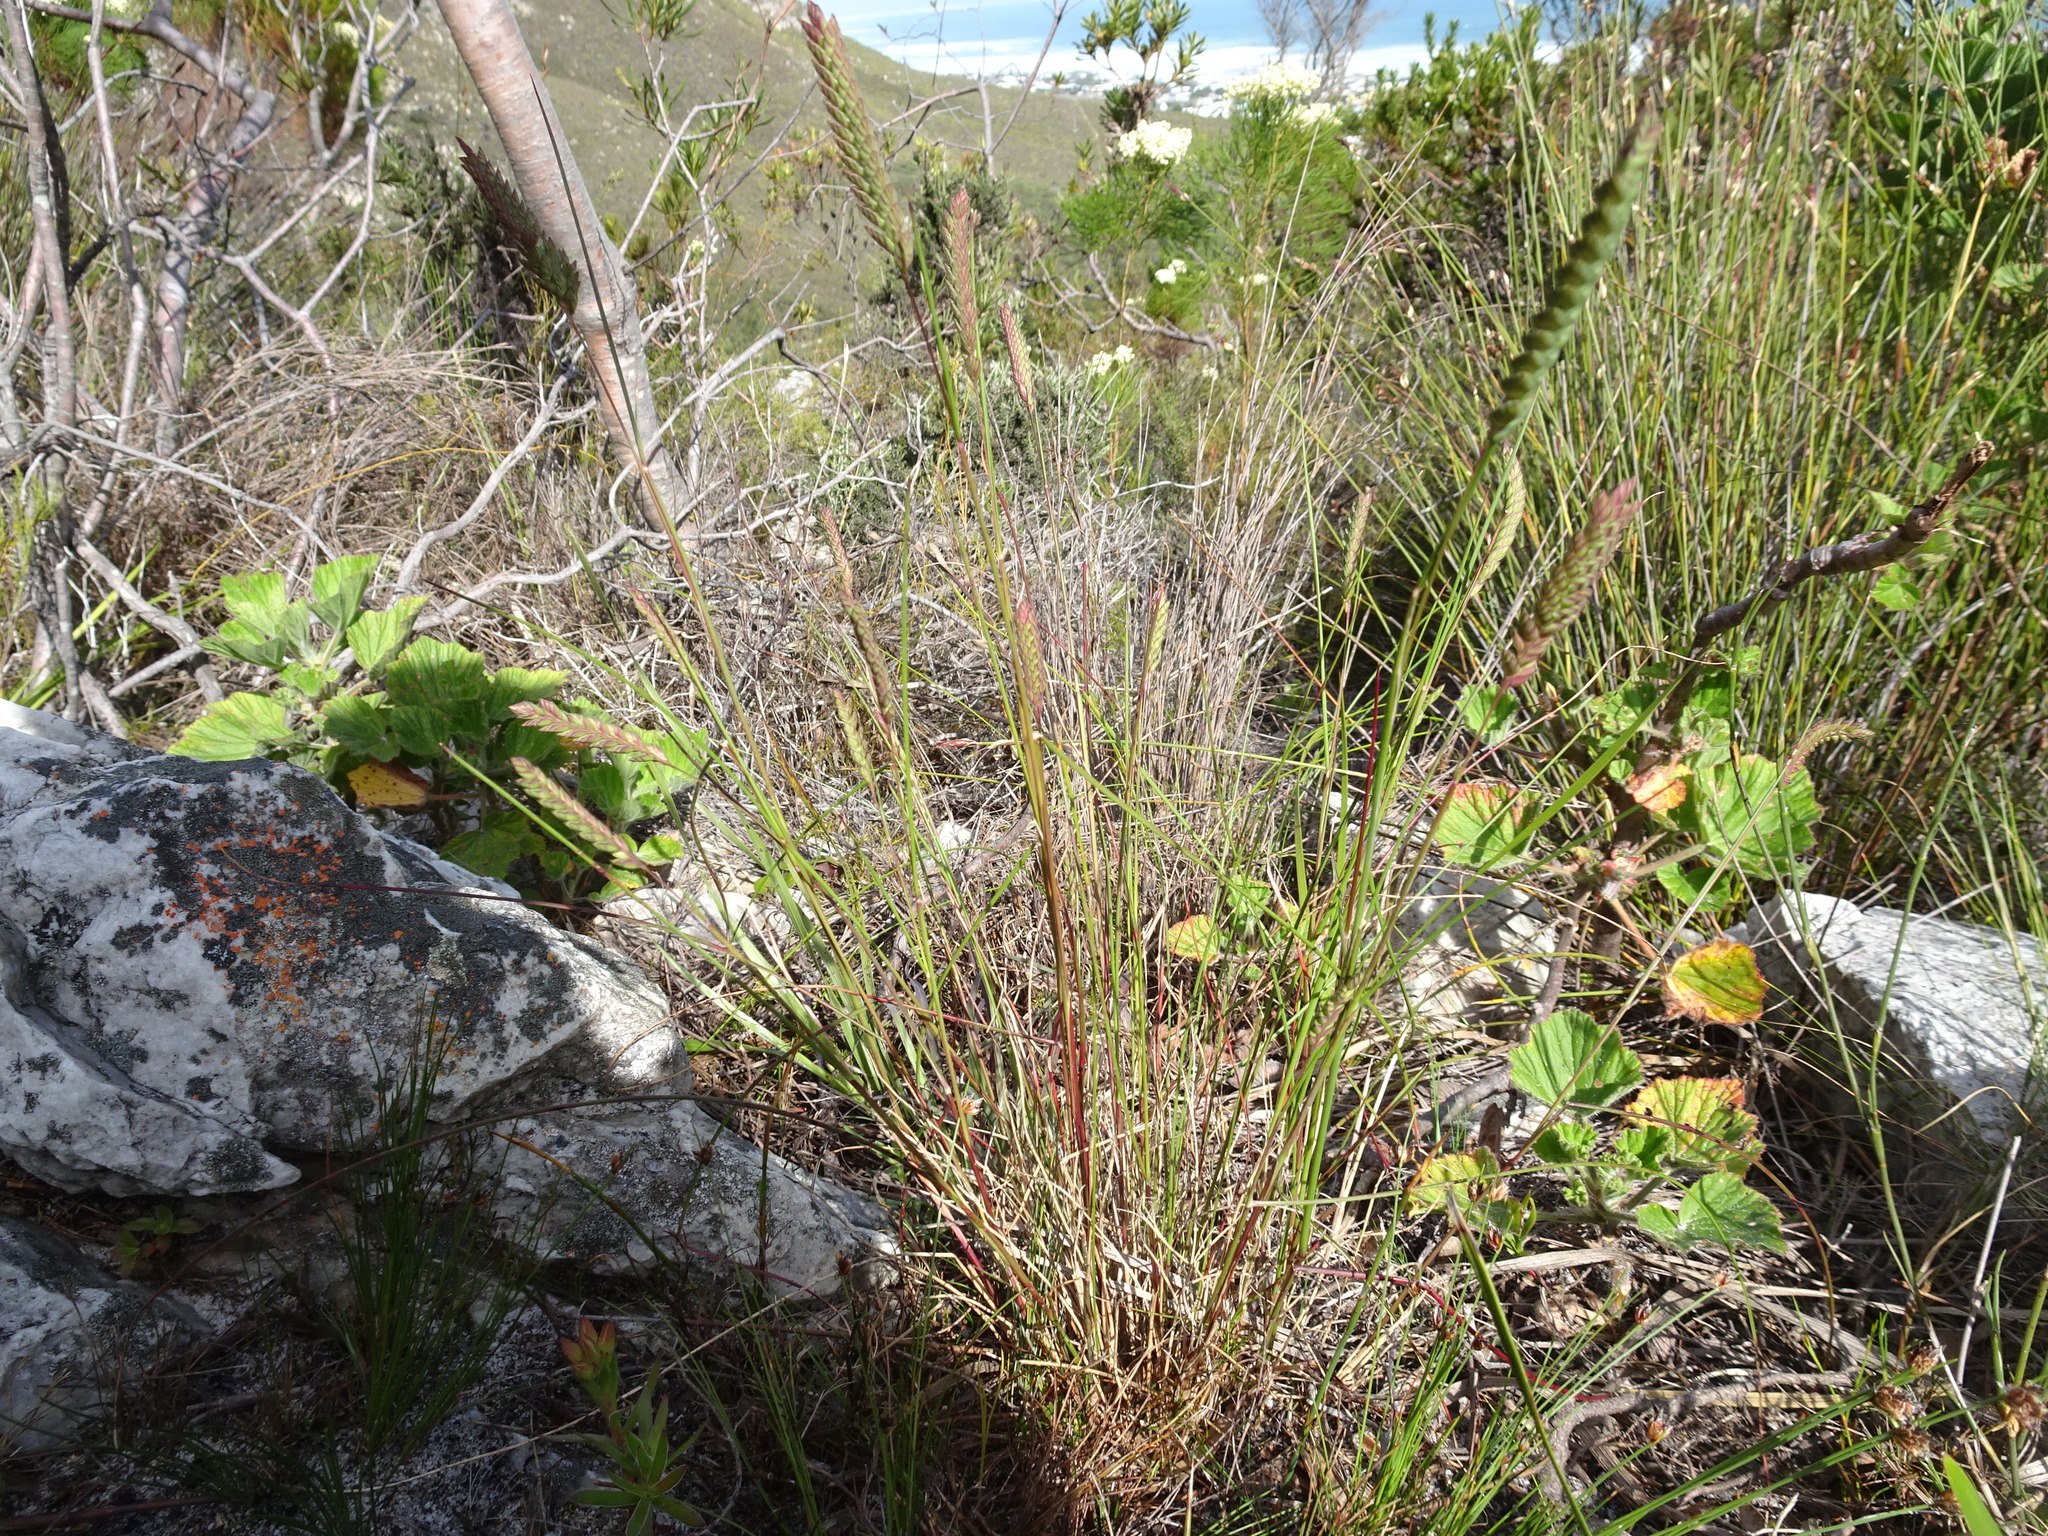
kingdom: Plantae
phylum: Tracheophyta
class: Liliopsida
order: Poales
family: Poaceae
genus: Tribolium
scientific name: Tribolium uniolae
